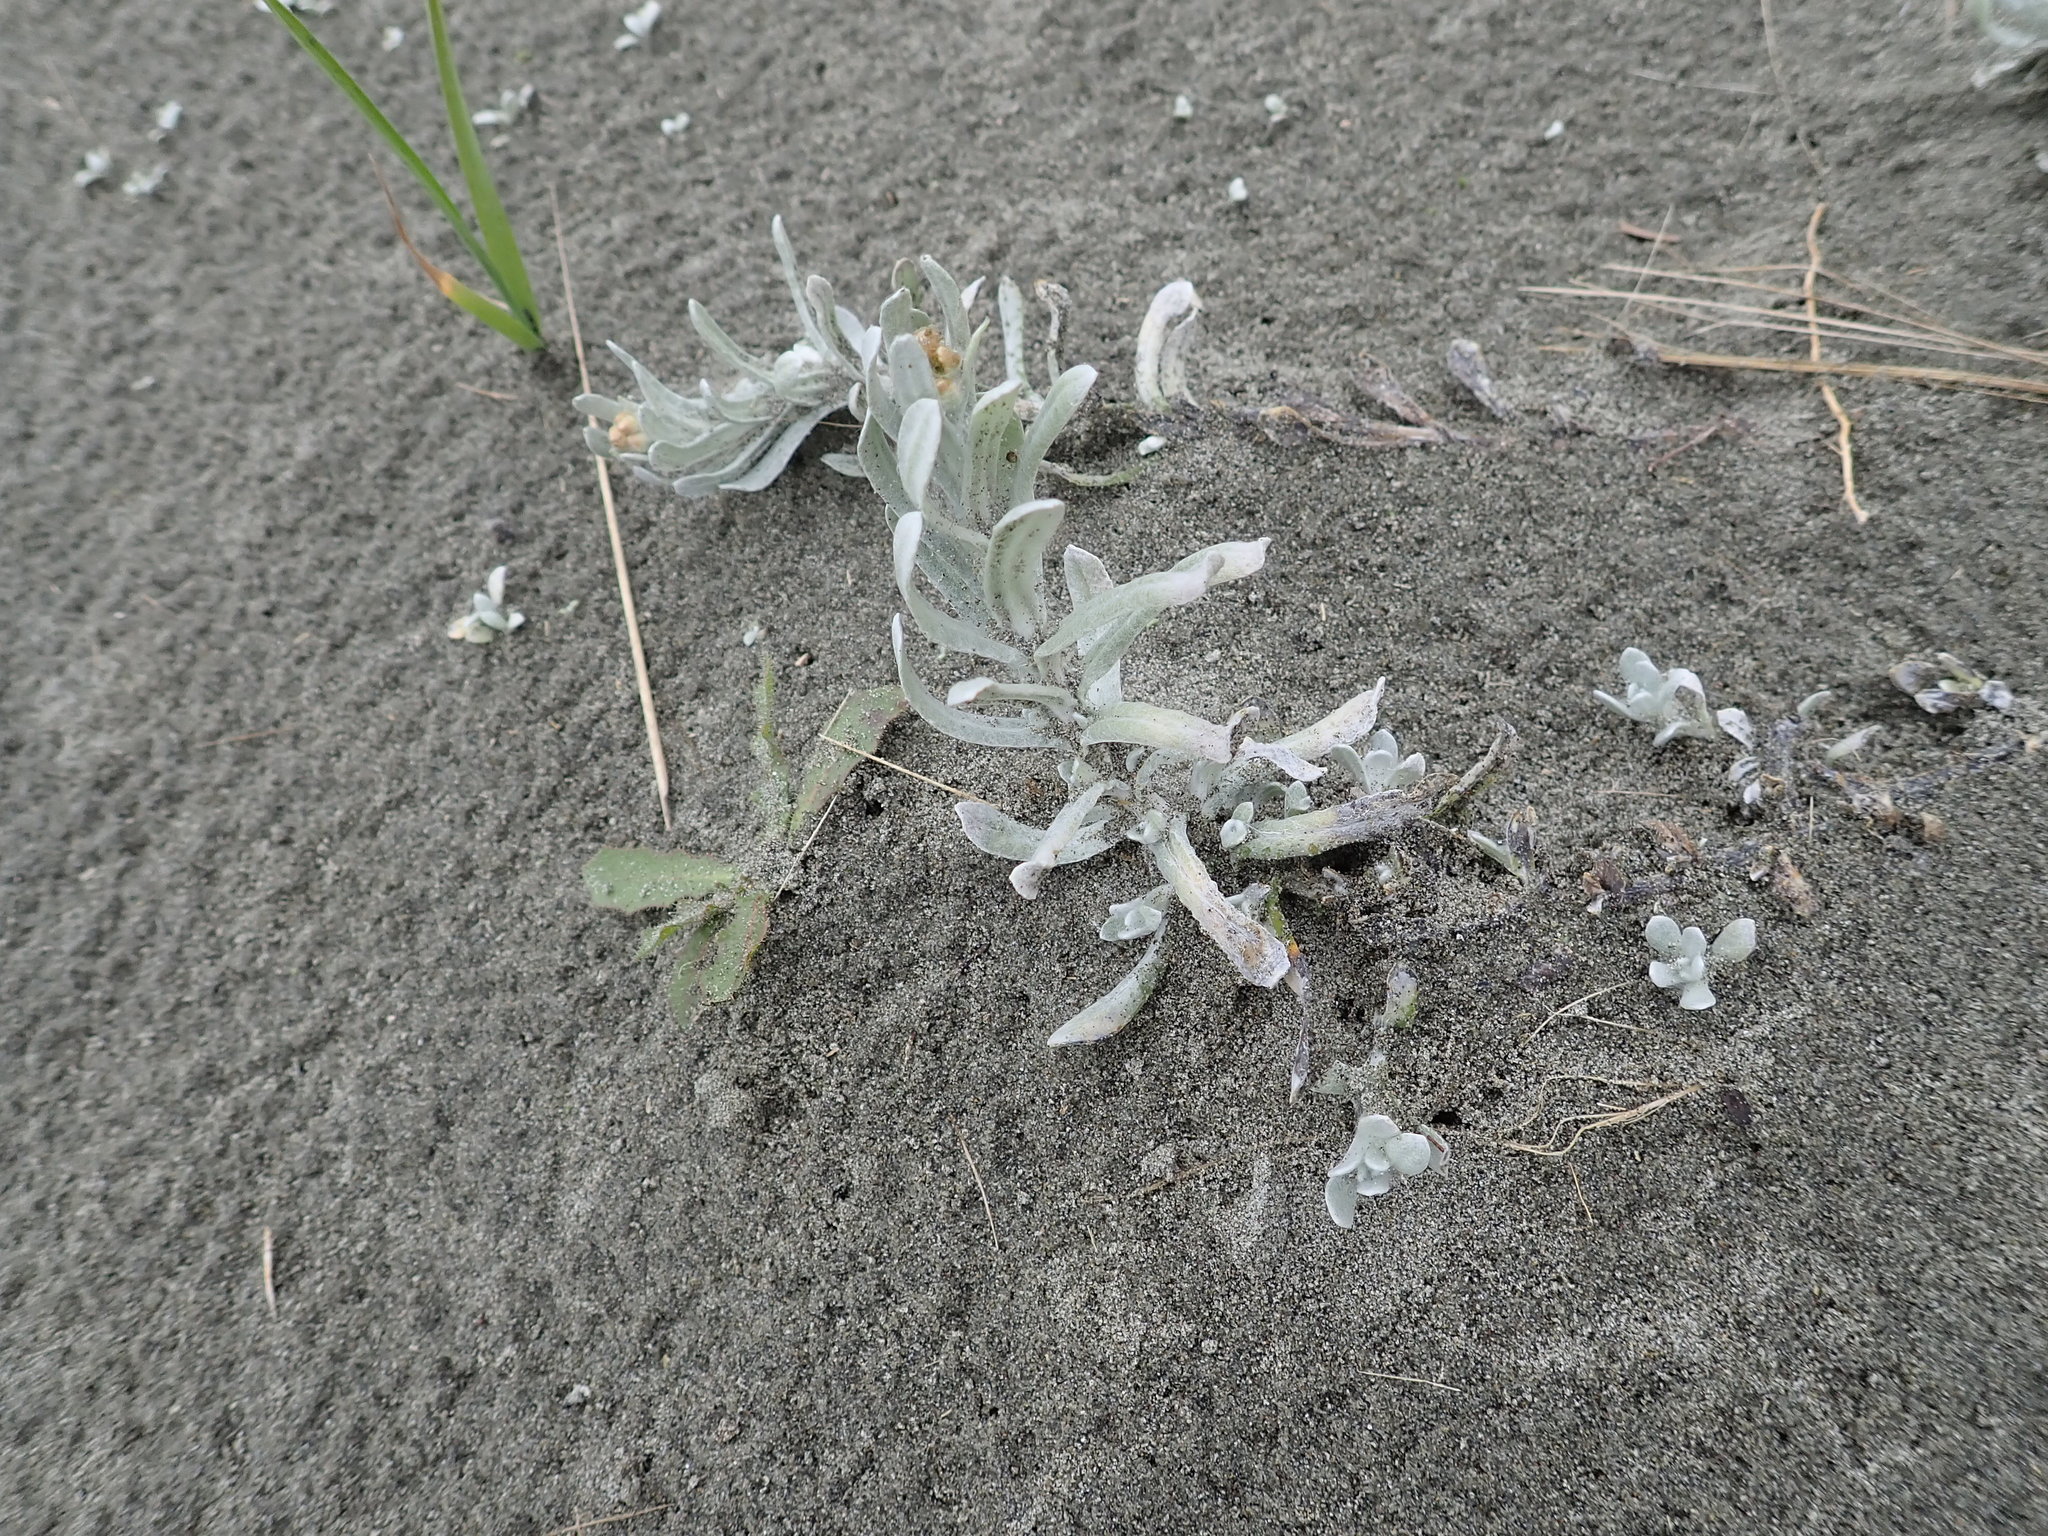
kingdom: Plantae
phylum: Tracheophyta
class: Magnoliopsida
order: Asterales
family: Asteraceae
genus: Helichrysum
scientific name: Helichrysum luteoalbum
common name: Daisy
